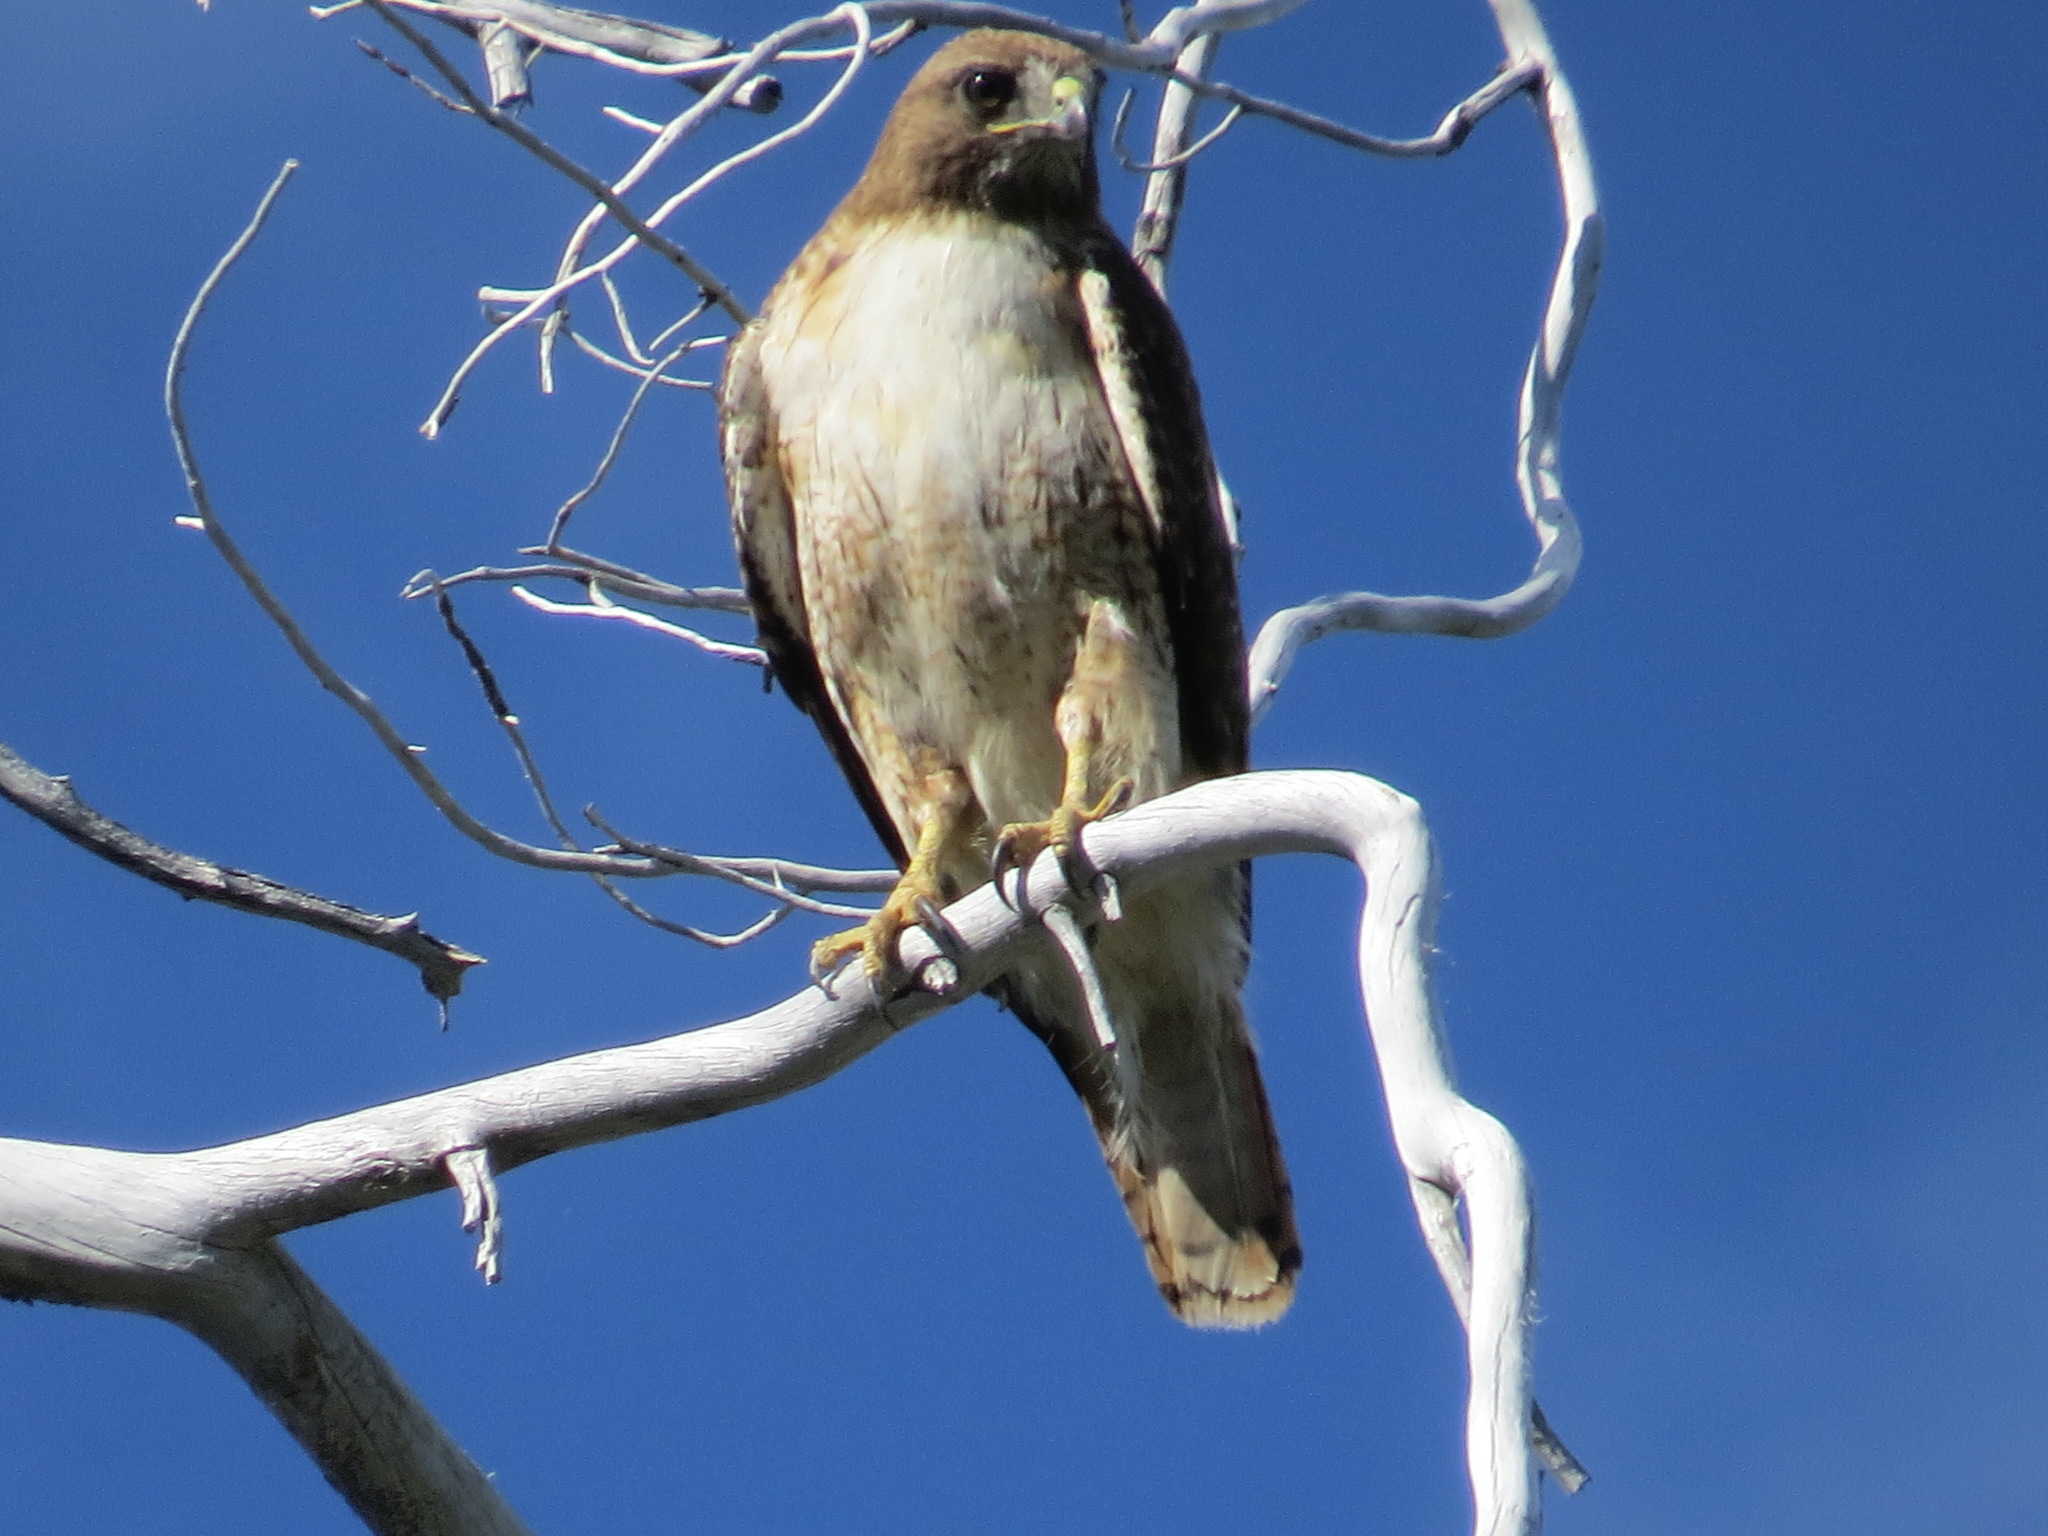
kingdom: Animalia
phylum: Chordata
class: Aves
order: Accipitriformes
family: Accipitridae
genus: Buteo
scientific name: Buteo jamaicensis
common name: Red-tailed hawk
